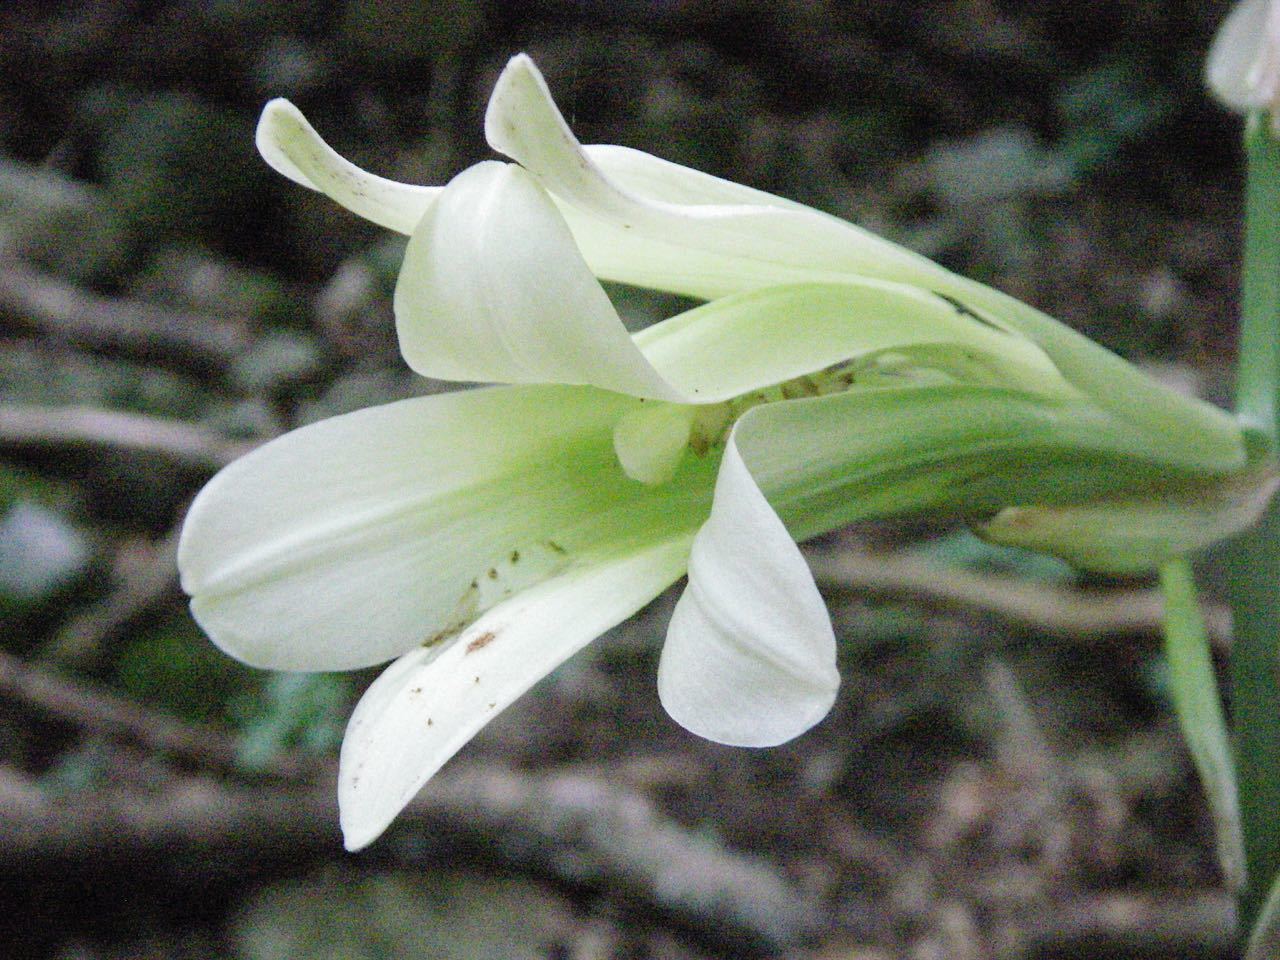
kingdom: Plantae
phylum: Tracheophyta
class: Liliopsida
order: Liliales
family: Liliaceae
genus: Cardiocrinum
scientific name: Cardiocrinum cordatum
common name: Lily
